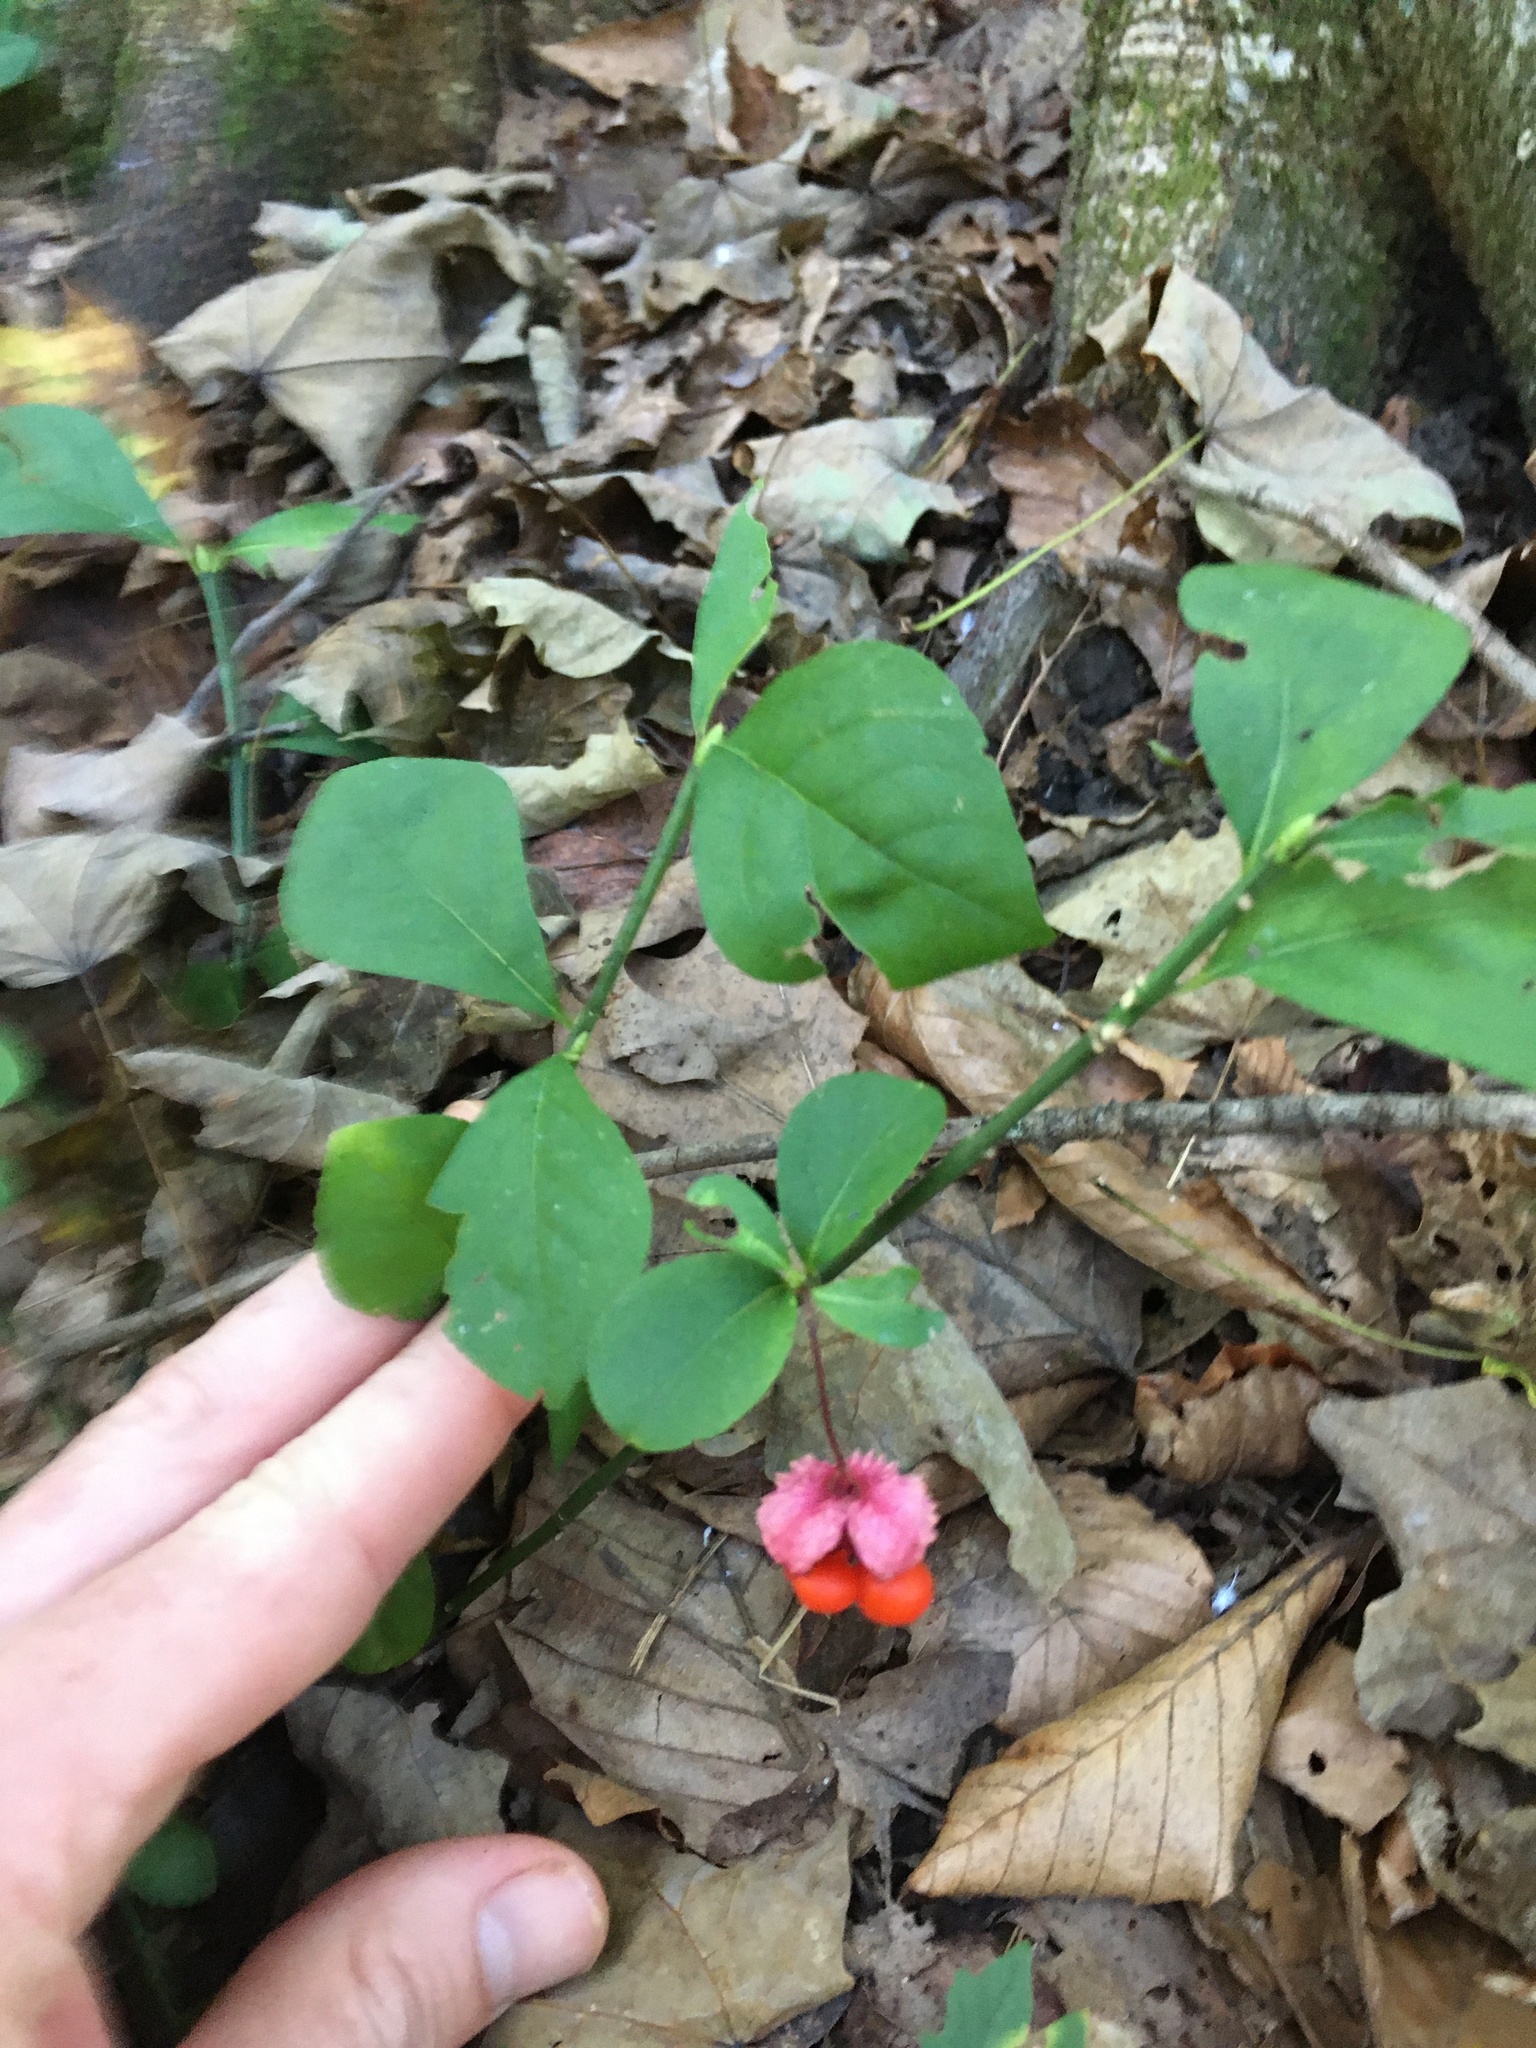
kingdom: Plantae
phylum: Tracheophyta
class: Magnoliopsida
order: Celastrales
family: Celastraceae
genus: Euonymus
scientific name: Euonymus obovatus
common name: Running strawberry-bush
